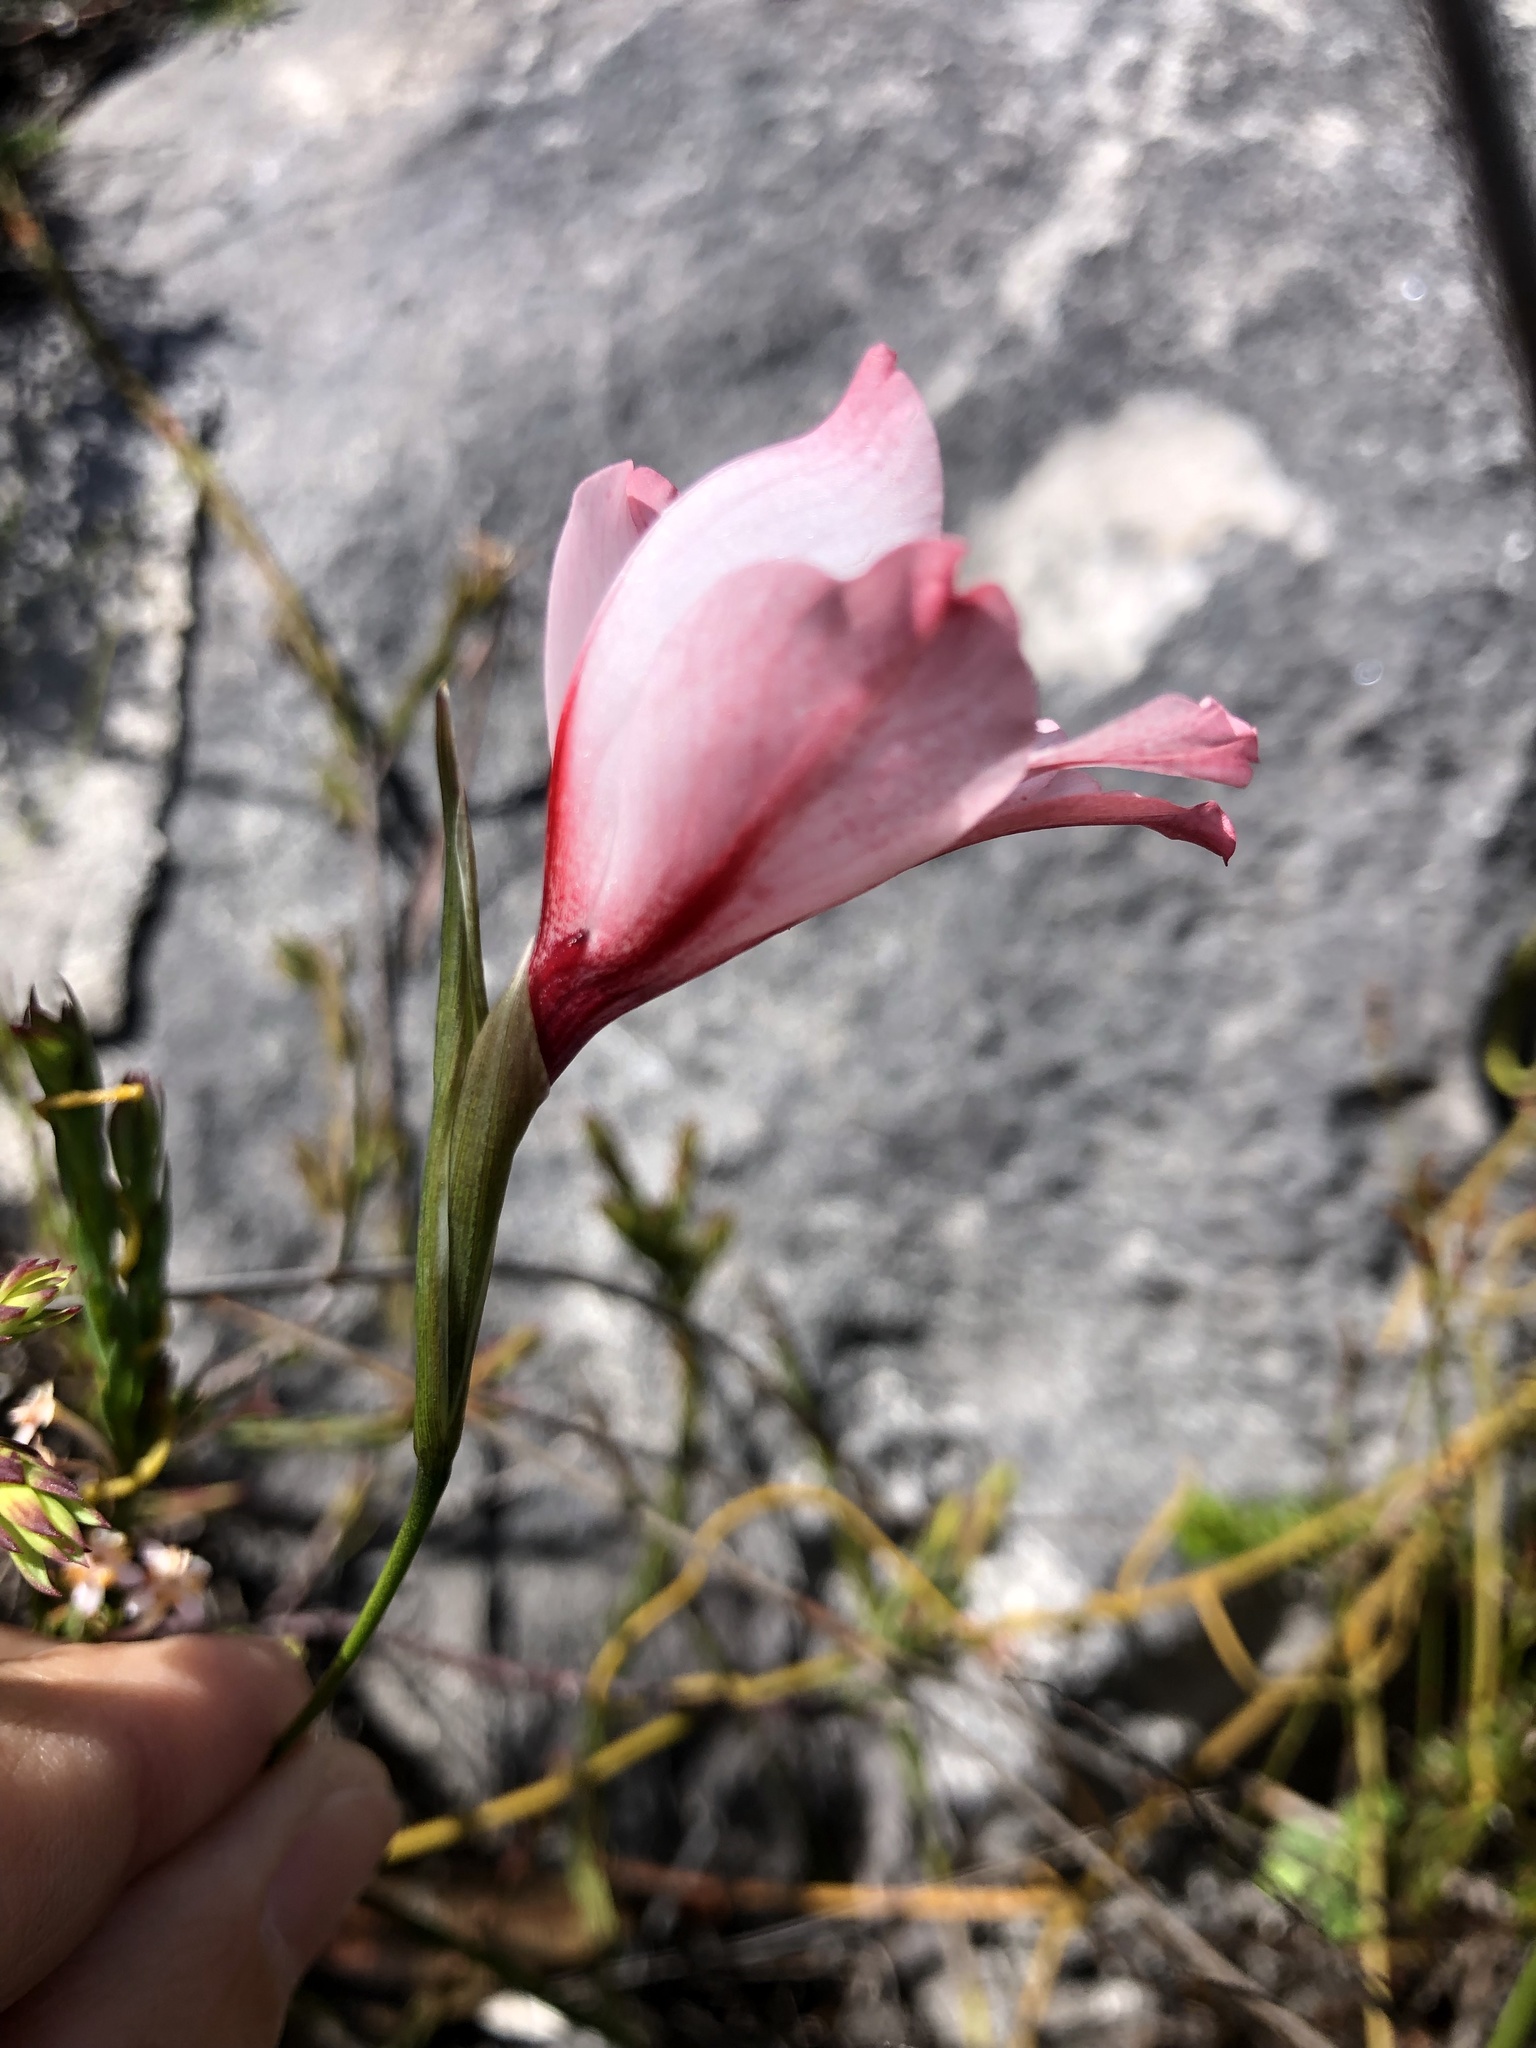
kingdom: Plantae
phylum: Tracheophyta
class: Liliopsida
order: Asparagales
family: Iridaceae
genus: Gladiolus
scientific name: Gladiolus variegatus
